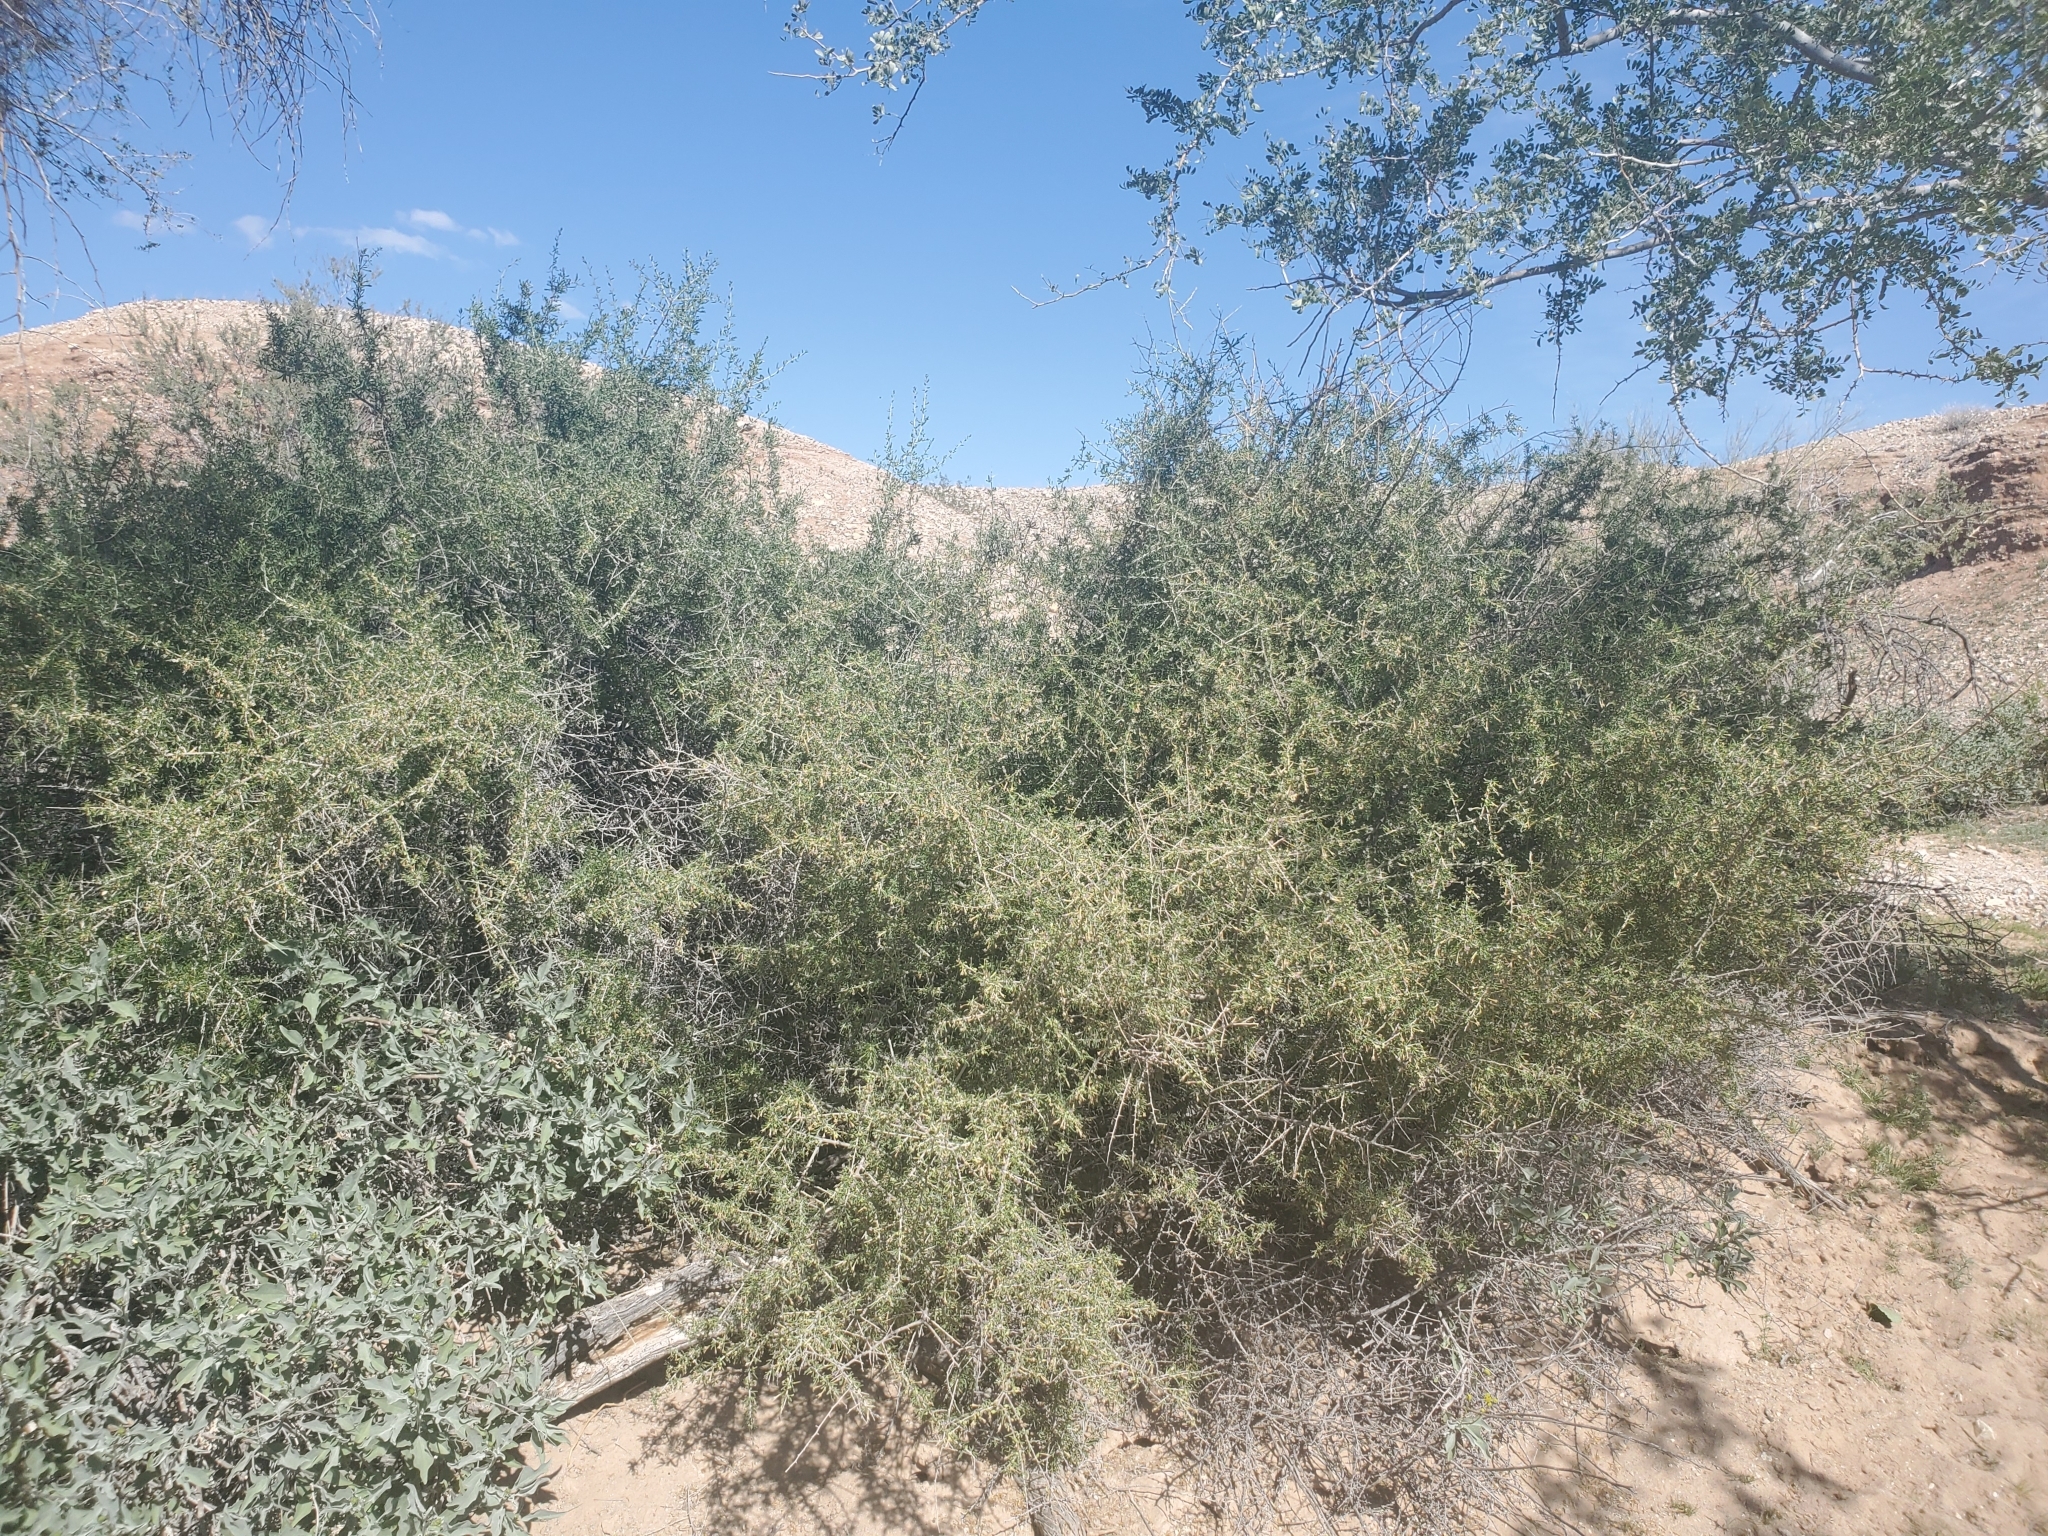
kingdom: Plantae
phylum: Tracheophyta
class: Magnoliopsida
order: Solanales
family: Solanaceae
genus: Lycium
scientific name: Lycium andersonii
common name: Water-jacket
